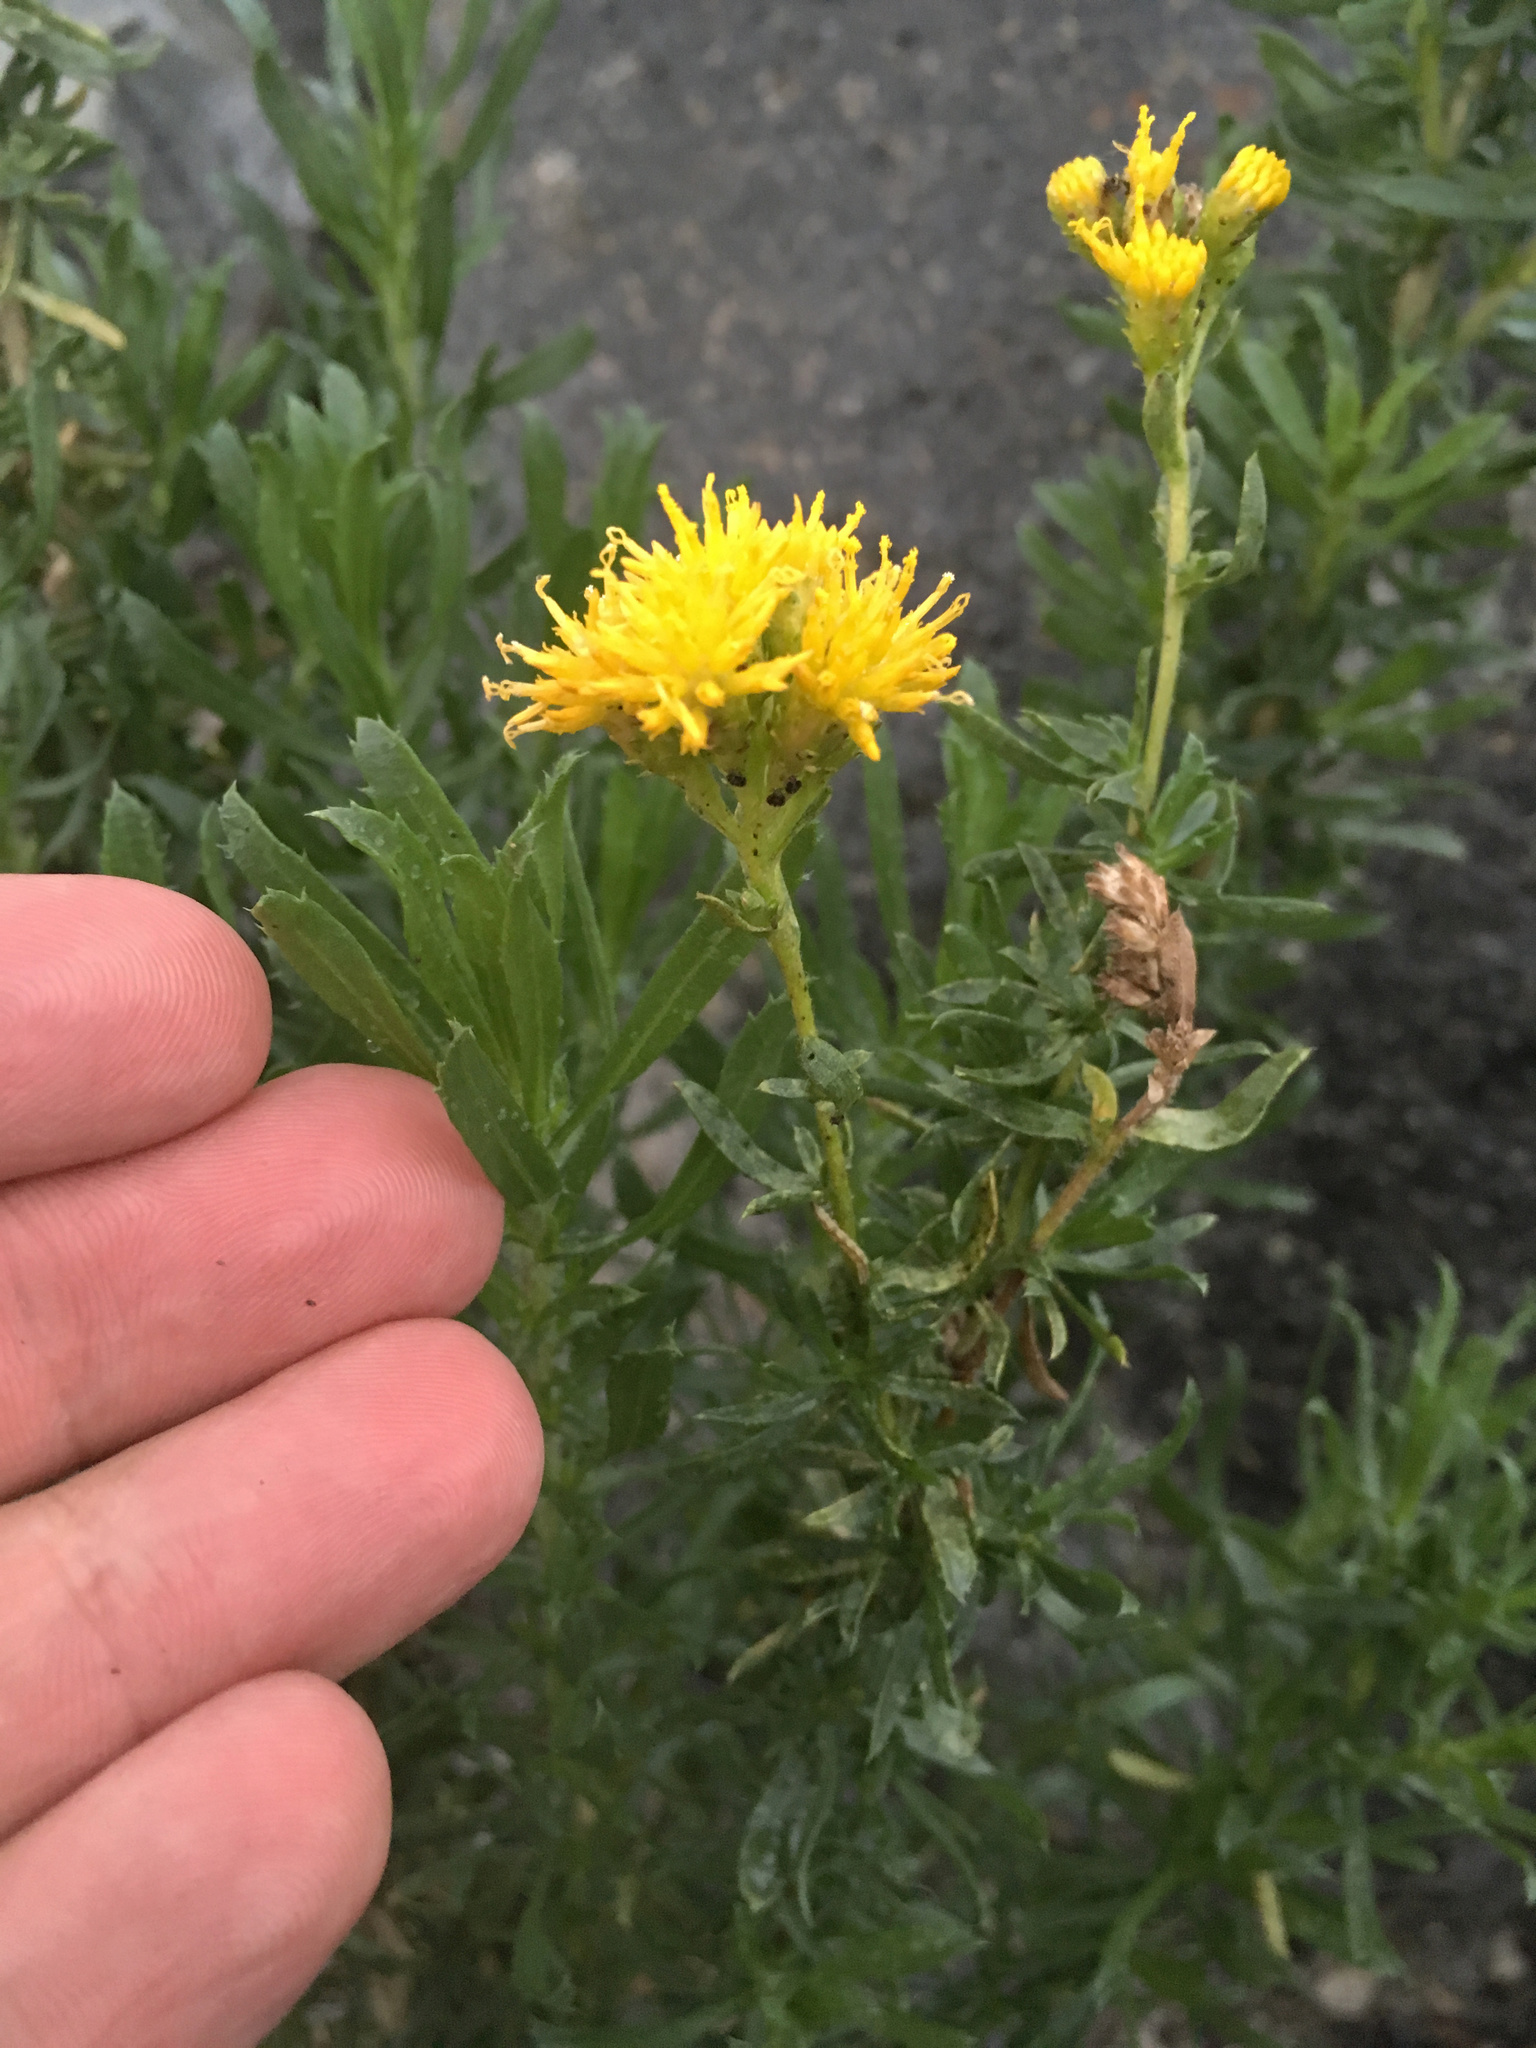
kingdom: Plantae
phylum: Tracheophyta
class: Magnoliopsida
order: Asterales
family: Asteraceae
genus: Isocoma
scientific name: Isocoma menziesii
